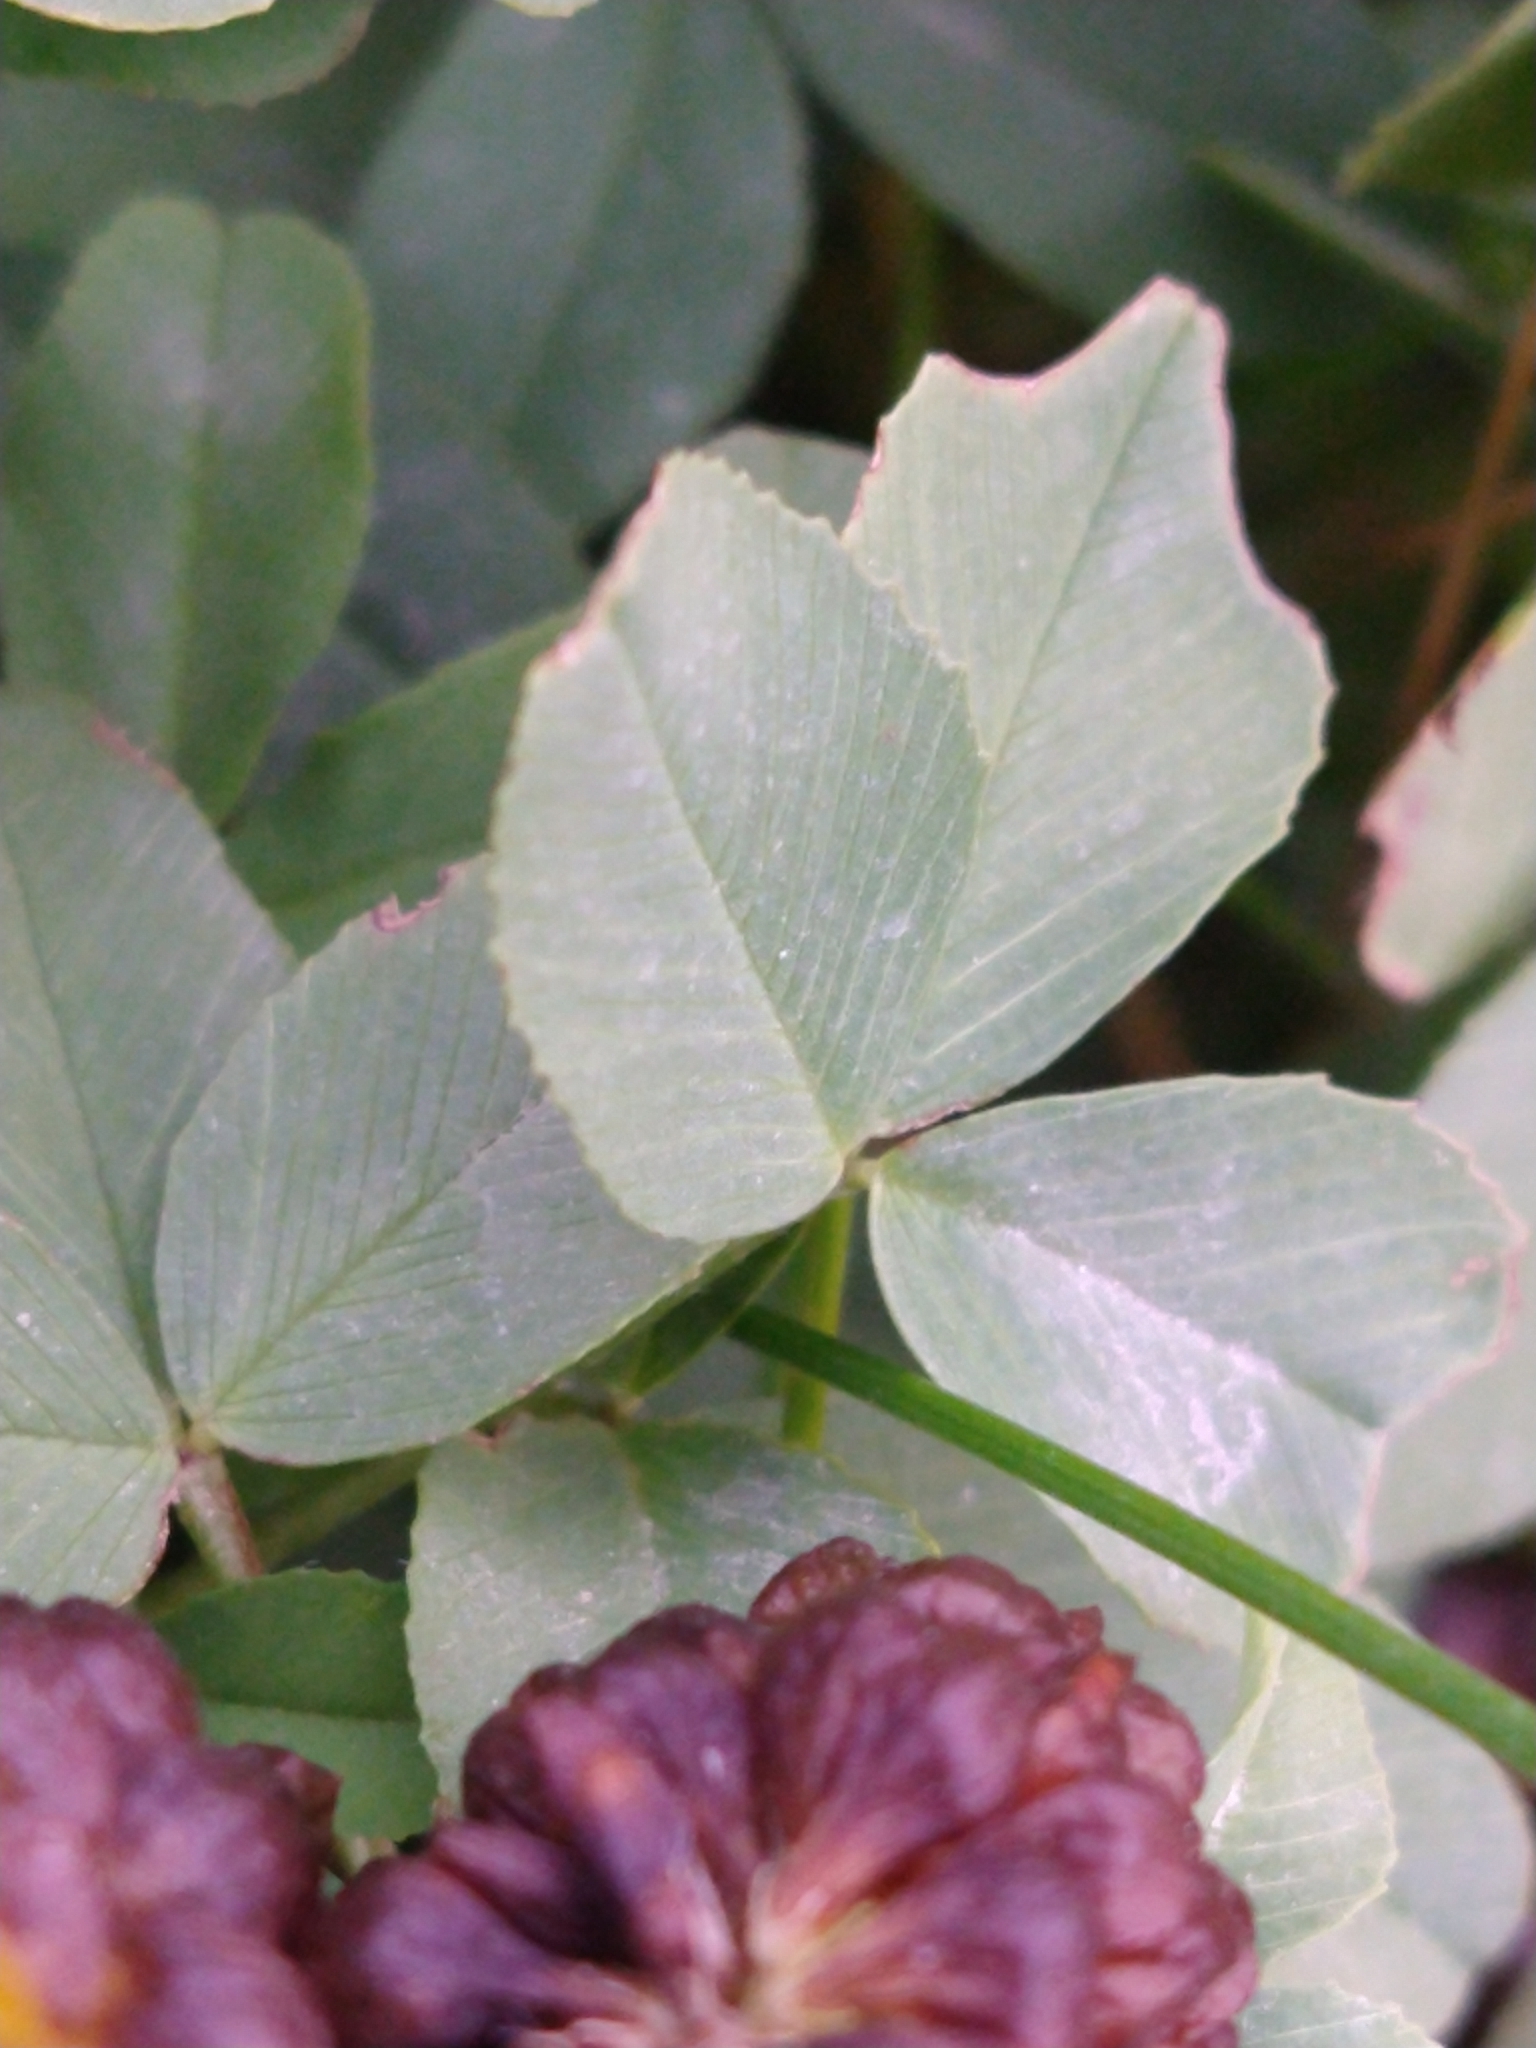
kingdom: Plantae
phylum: Tracheophyta
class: Magnoliopsida
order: Fabales
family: Fabaceae
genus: Trifolium
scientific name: Trifolium spadiceum
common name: Brown moor clover
